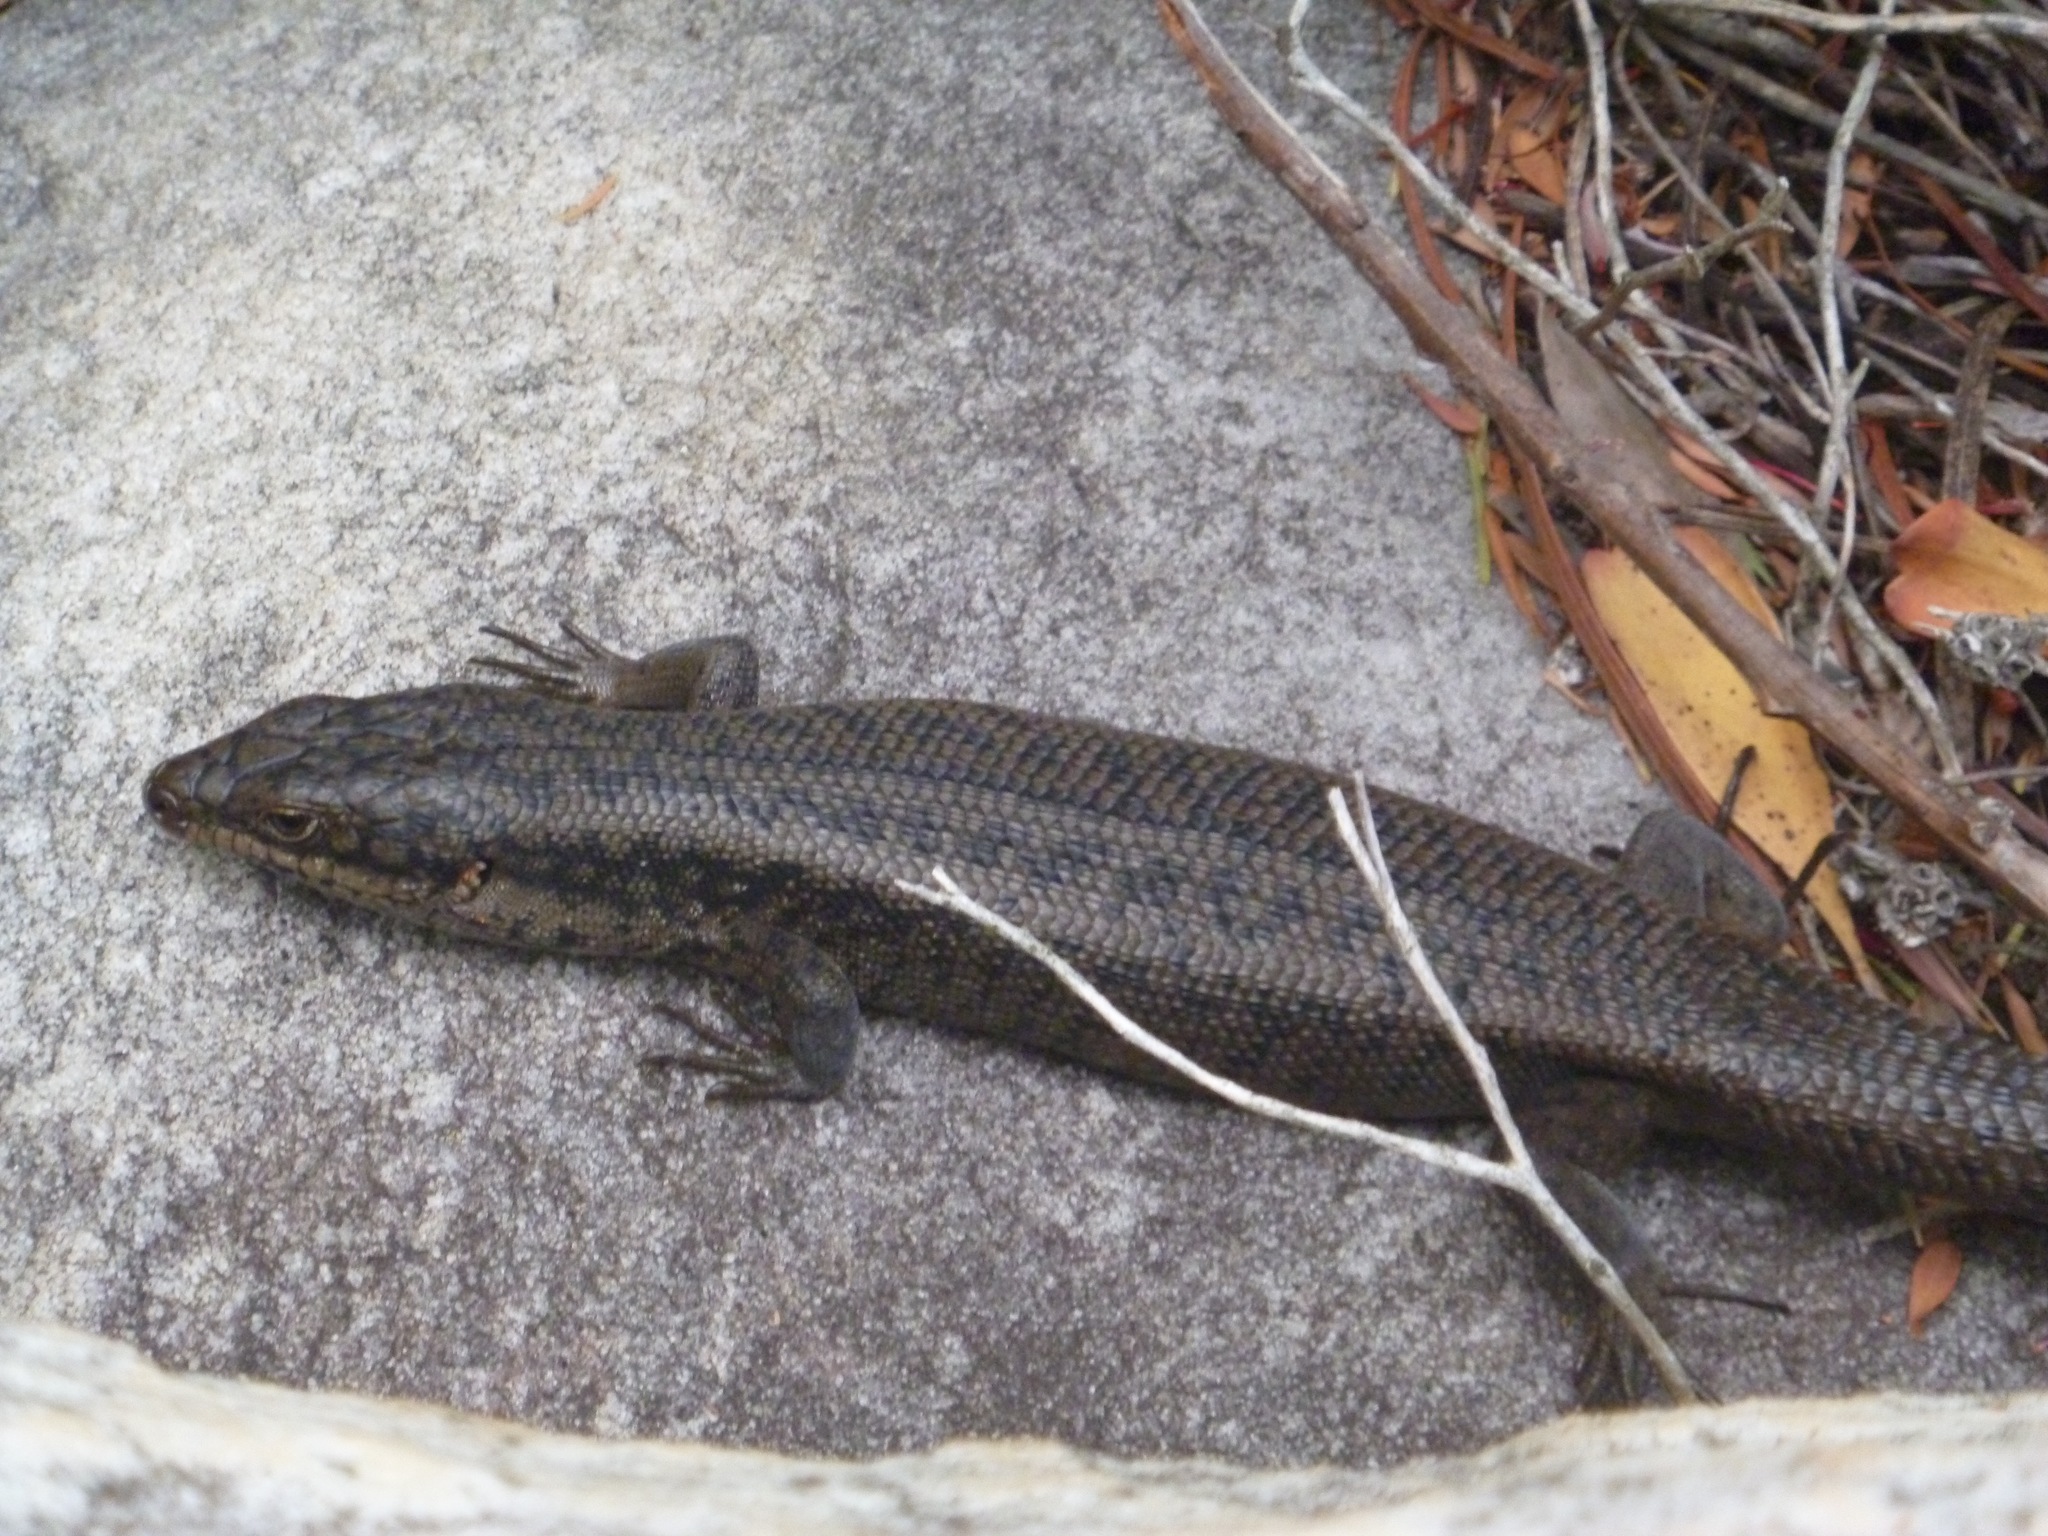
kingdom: Animalia
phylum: Chordata
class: Squamata
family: Scincidae
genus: Egernia
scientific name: Egernia napoleonis
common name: South-western crevice skink
